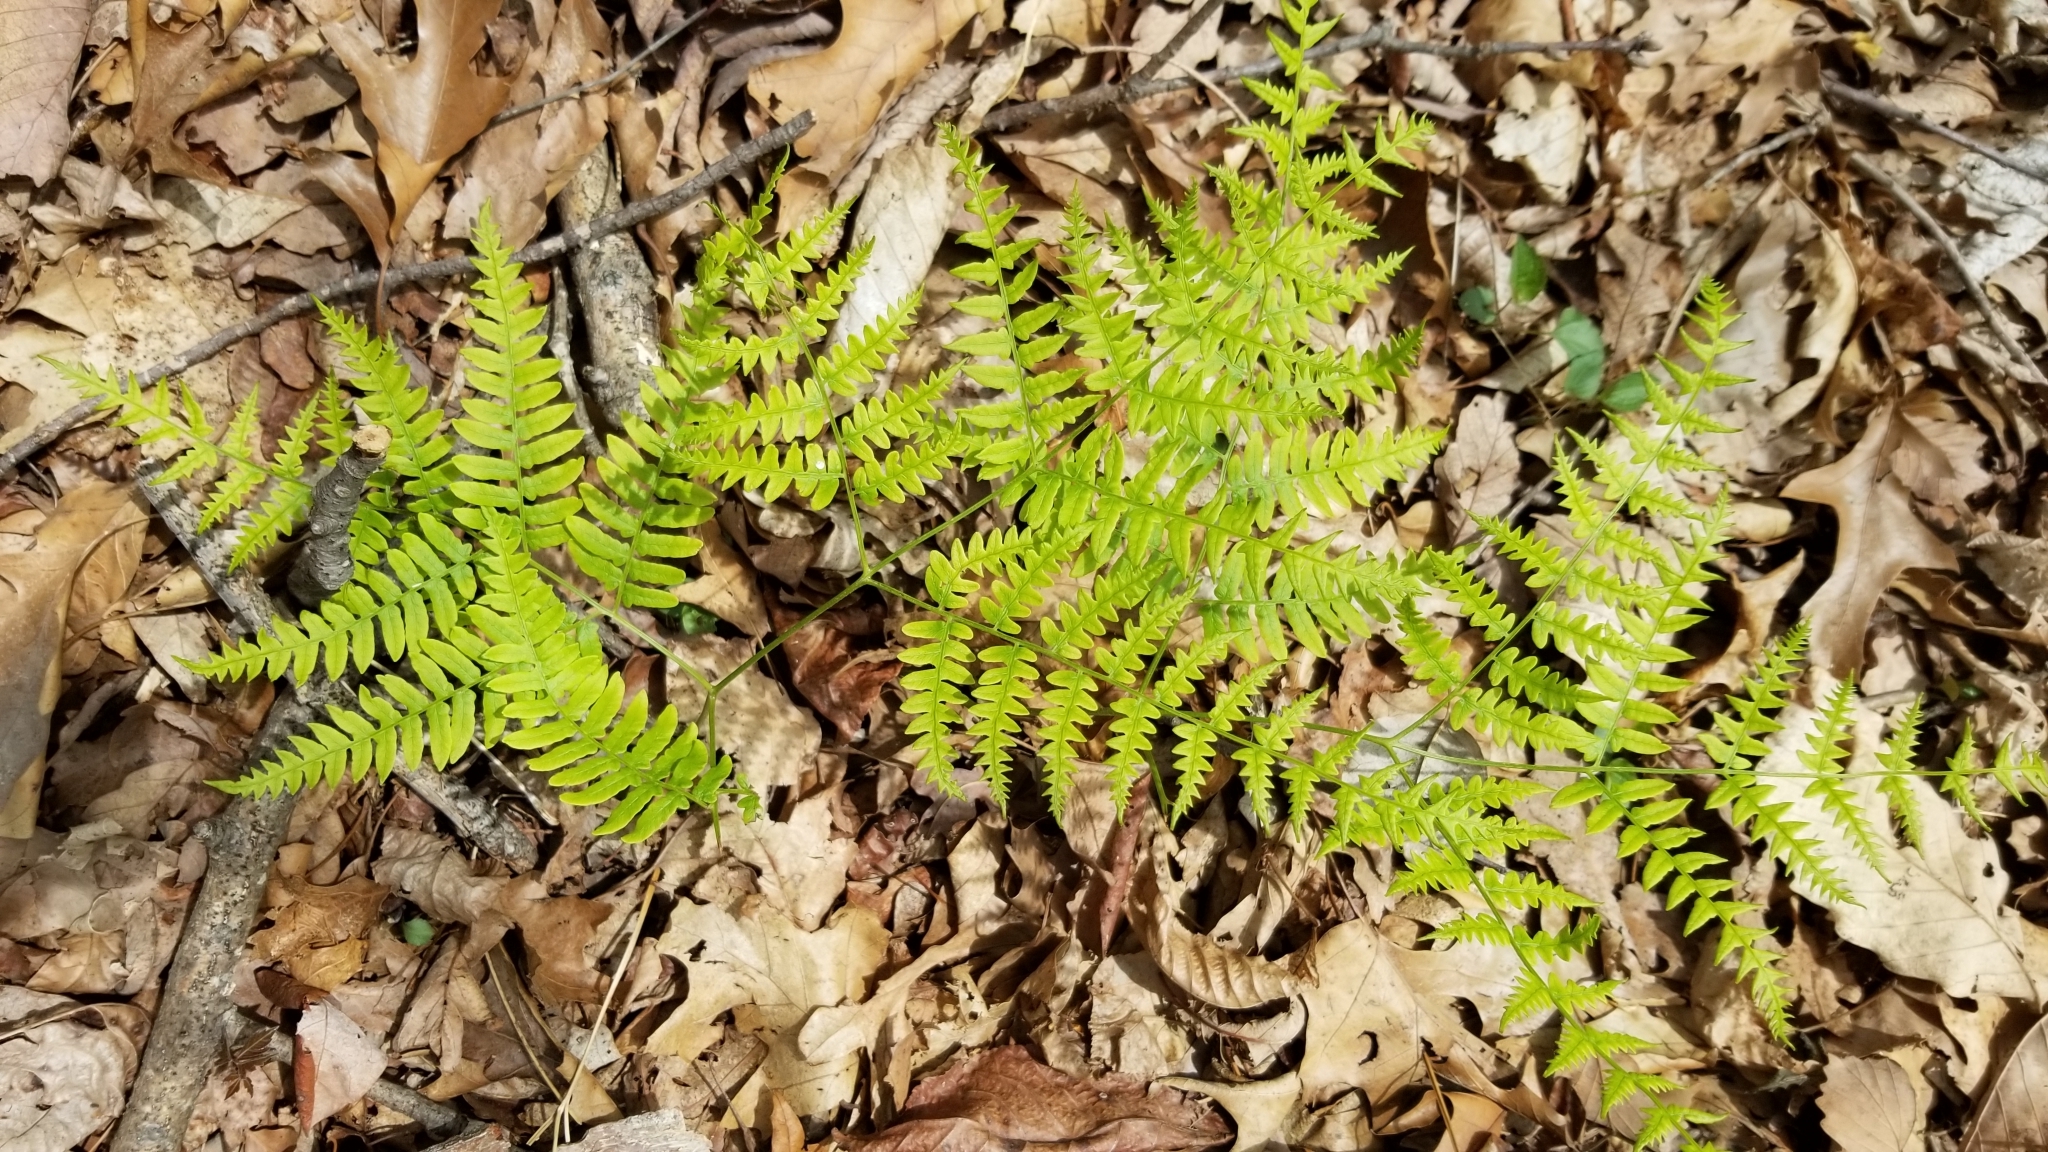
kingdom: Plantae
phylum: Tracheophyta
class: Polypodiopsida
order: Polypodiales
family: Dennstaedtiaceae
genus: Pteridium
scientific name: Pteridium aquilinum
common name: Bracken
